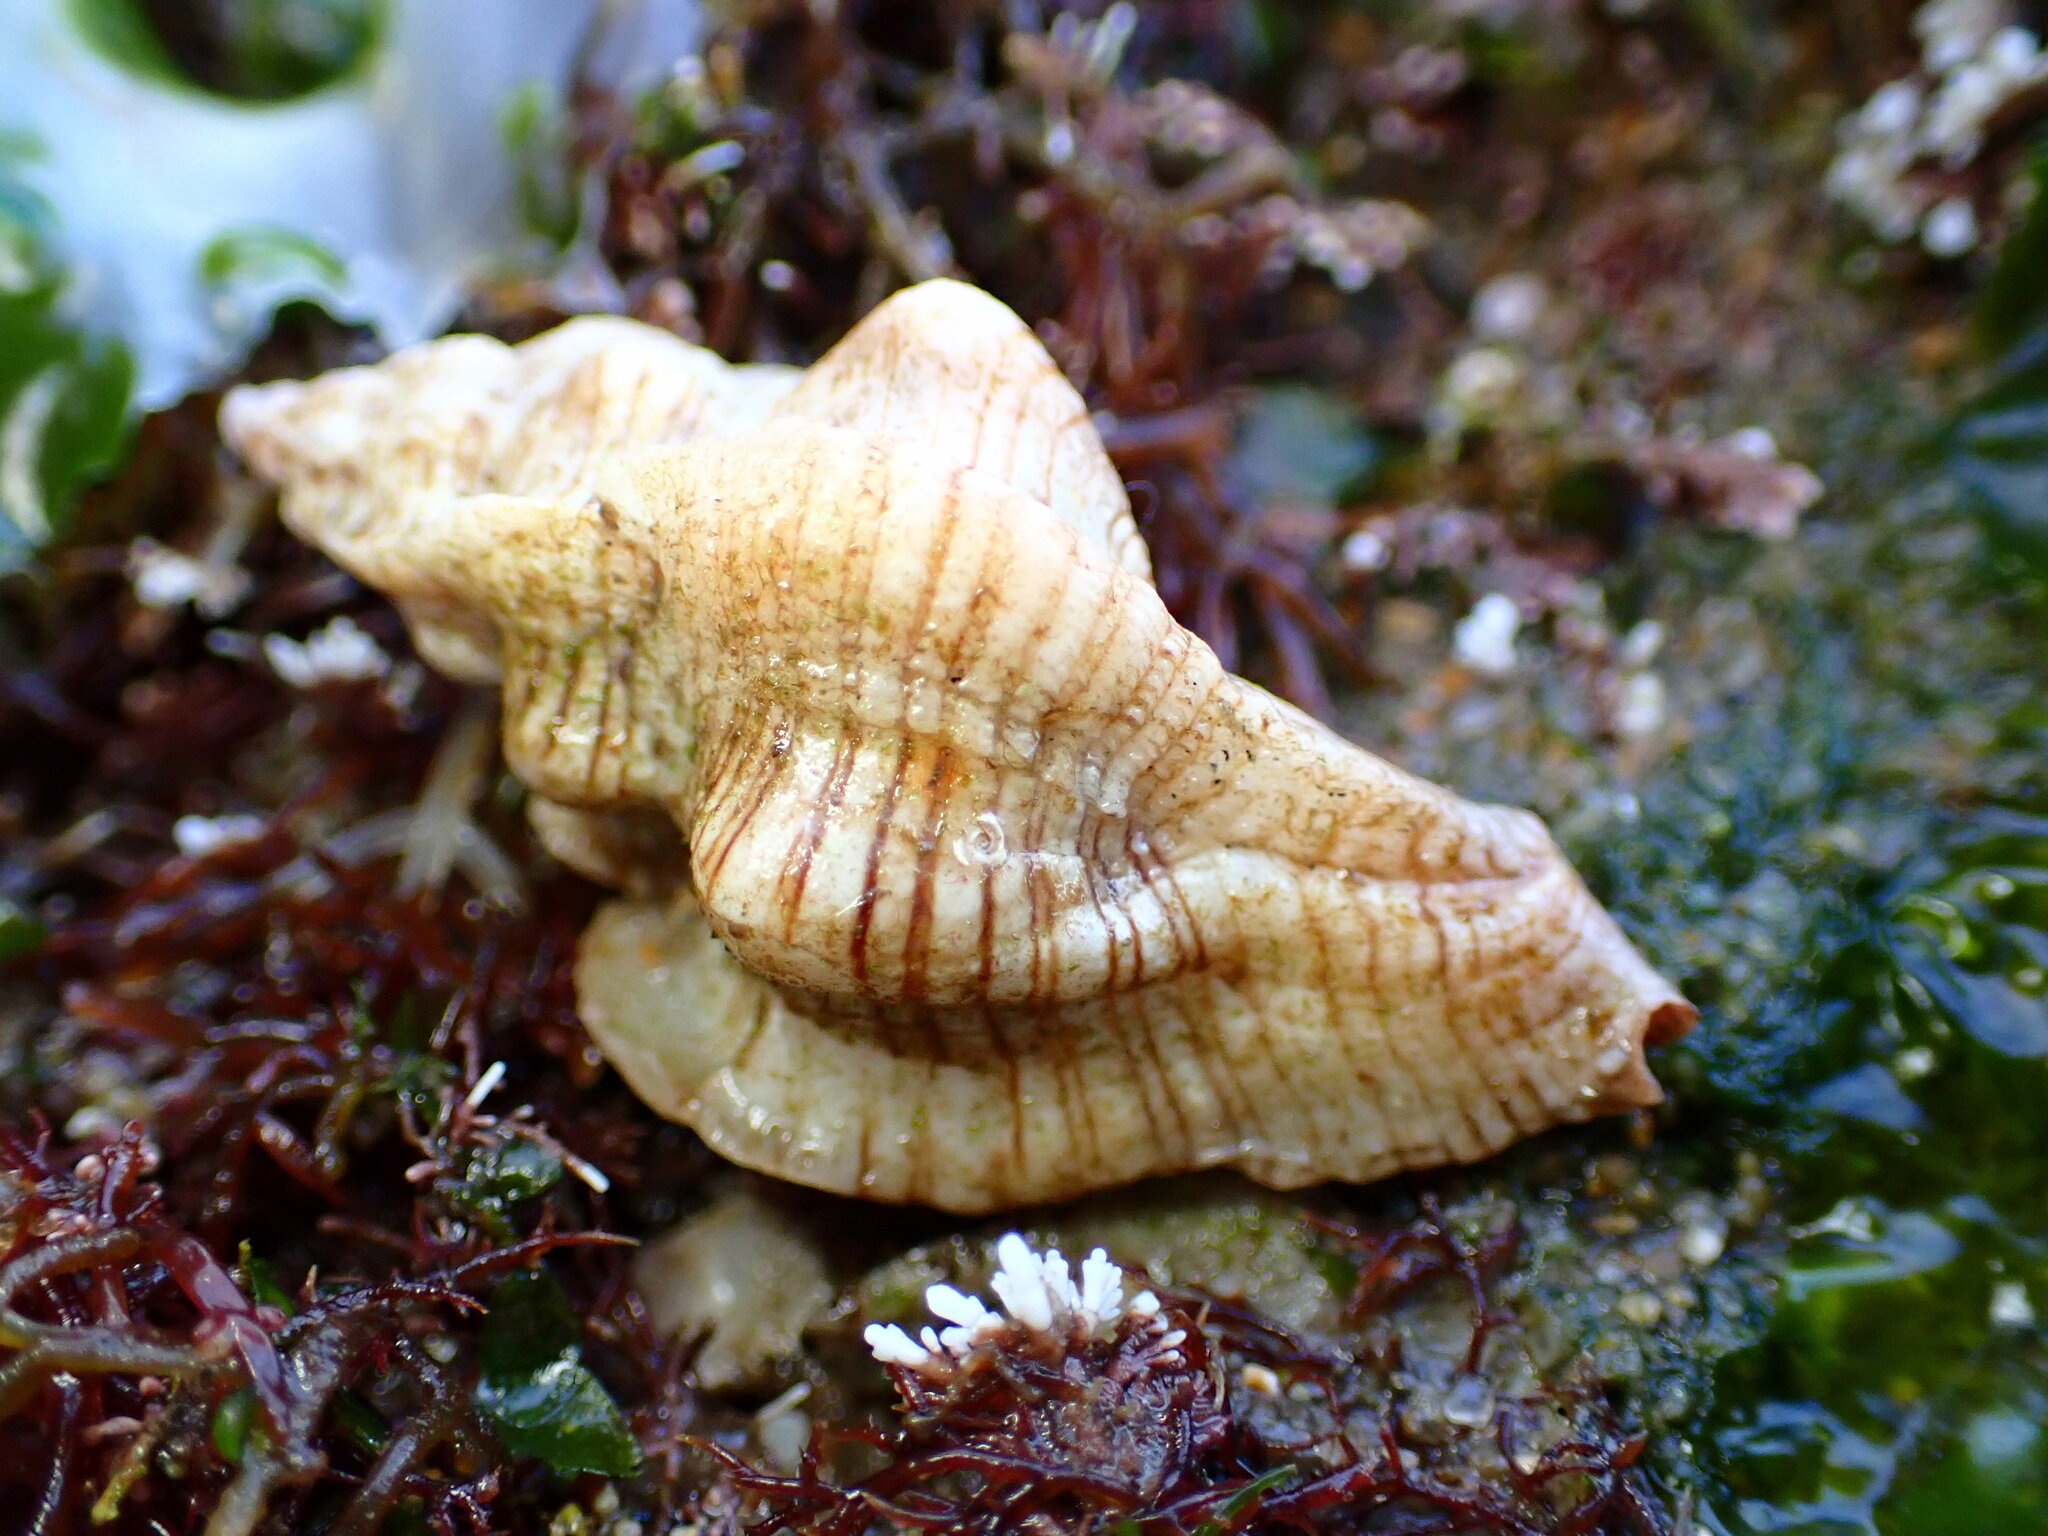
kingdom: Animalia
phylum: Mollusca
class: Gastropoda
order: Neogastropoda
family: Muricidae
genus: Pteropurpura
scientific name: Pteropurpura festiva
